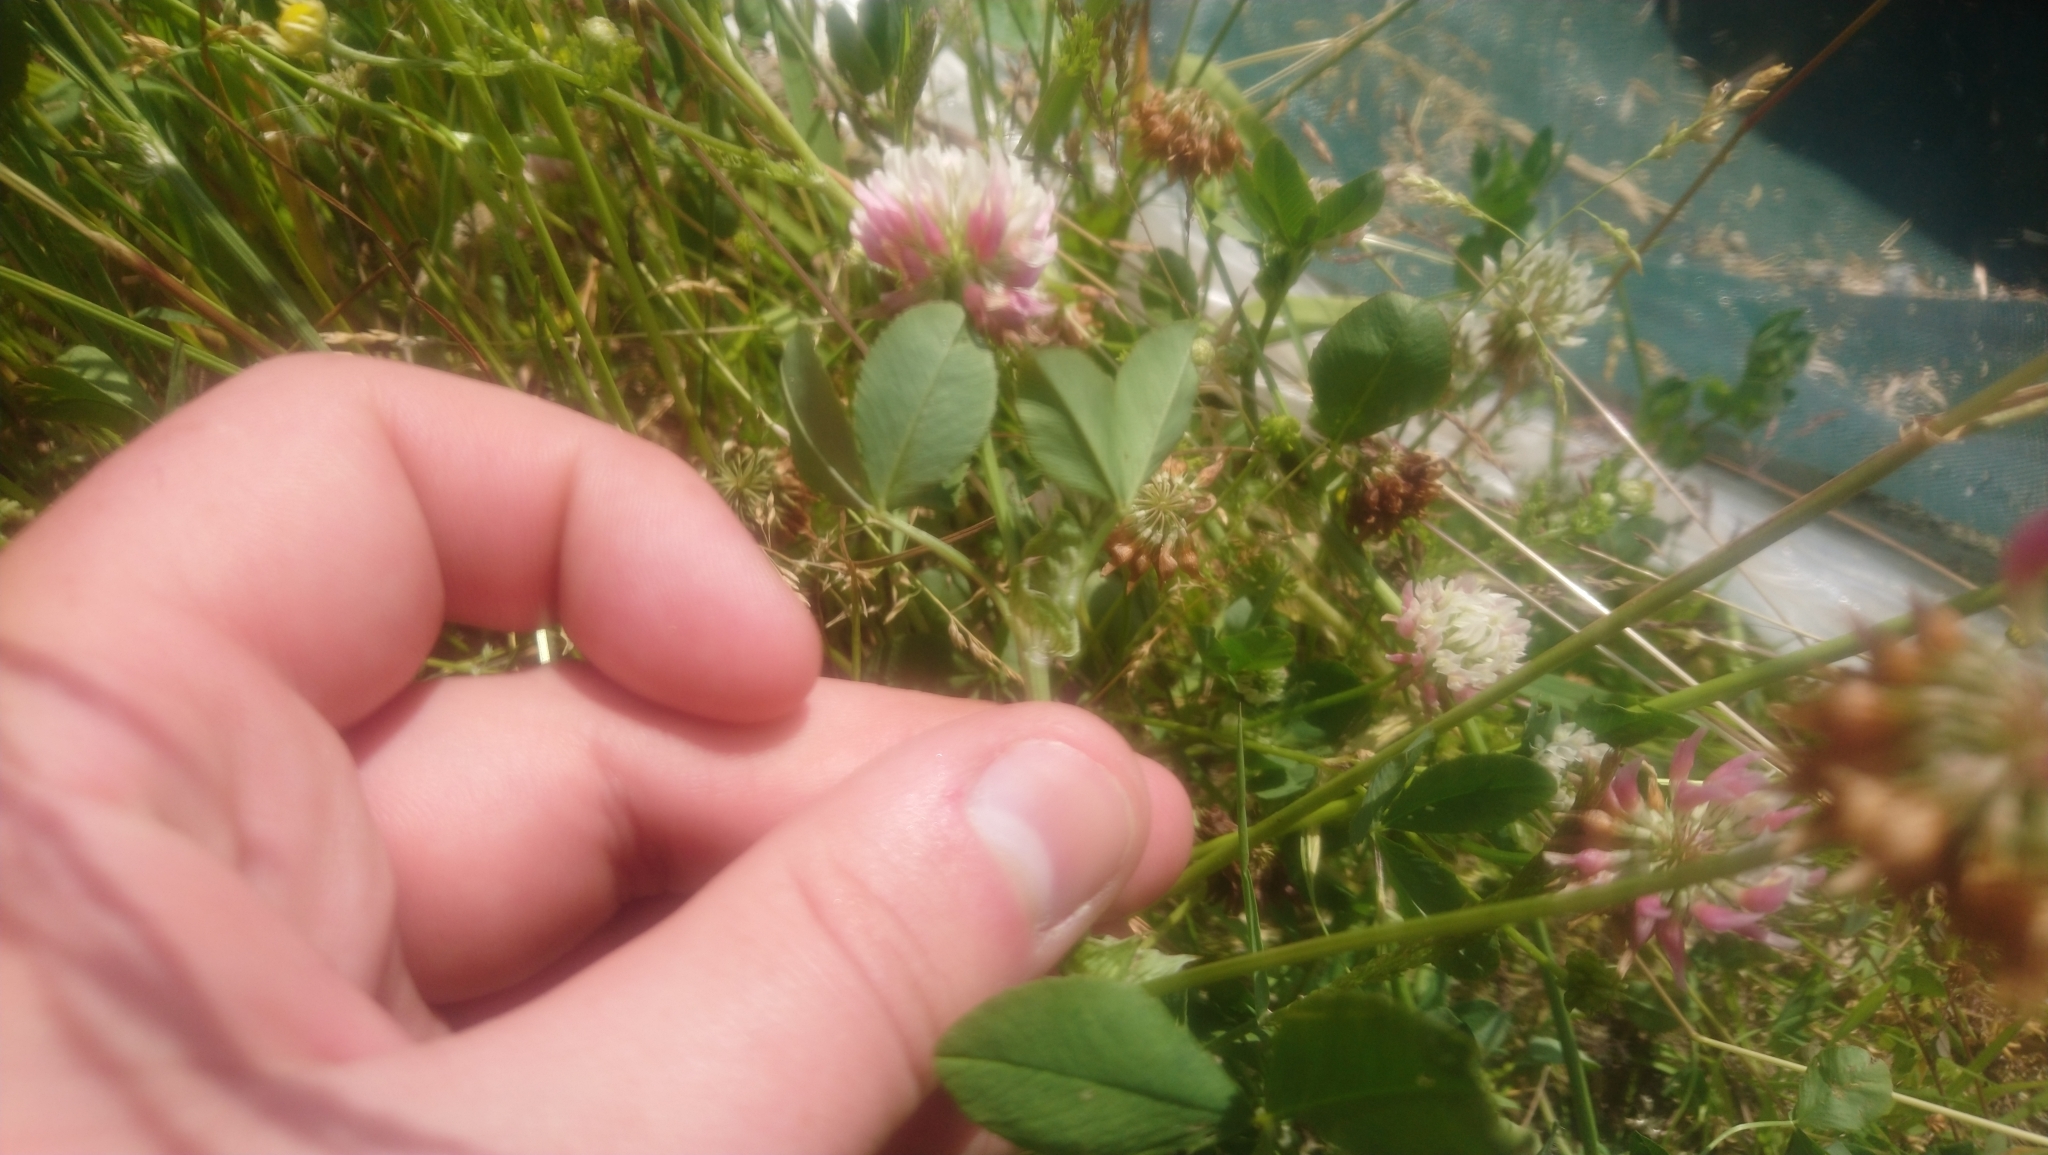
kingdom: Plantae
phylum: Tracheophyta
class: Magnoliopsida
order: Fabales
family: Fabaceae
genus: Trifolium
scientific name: Trifolium hybridum
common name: Alsike clover
